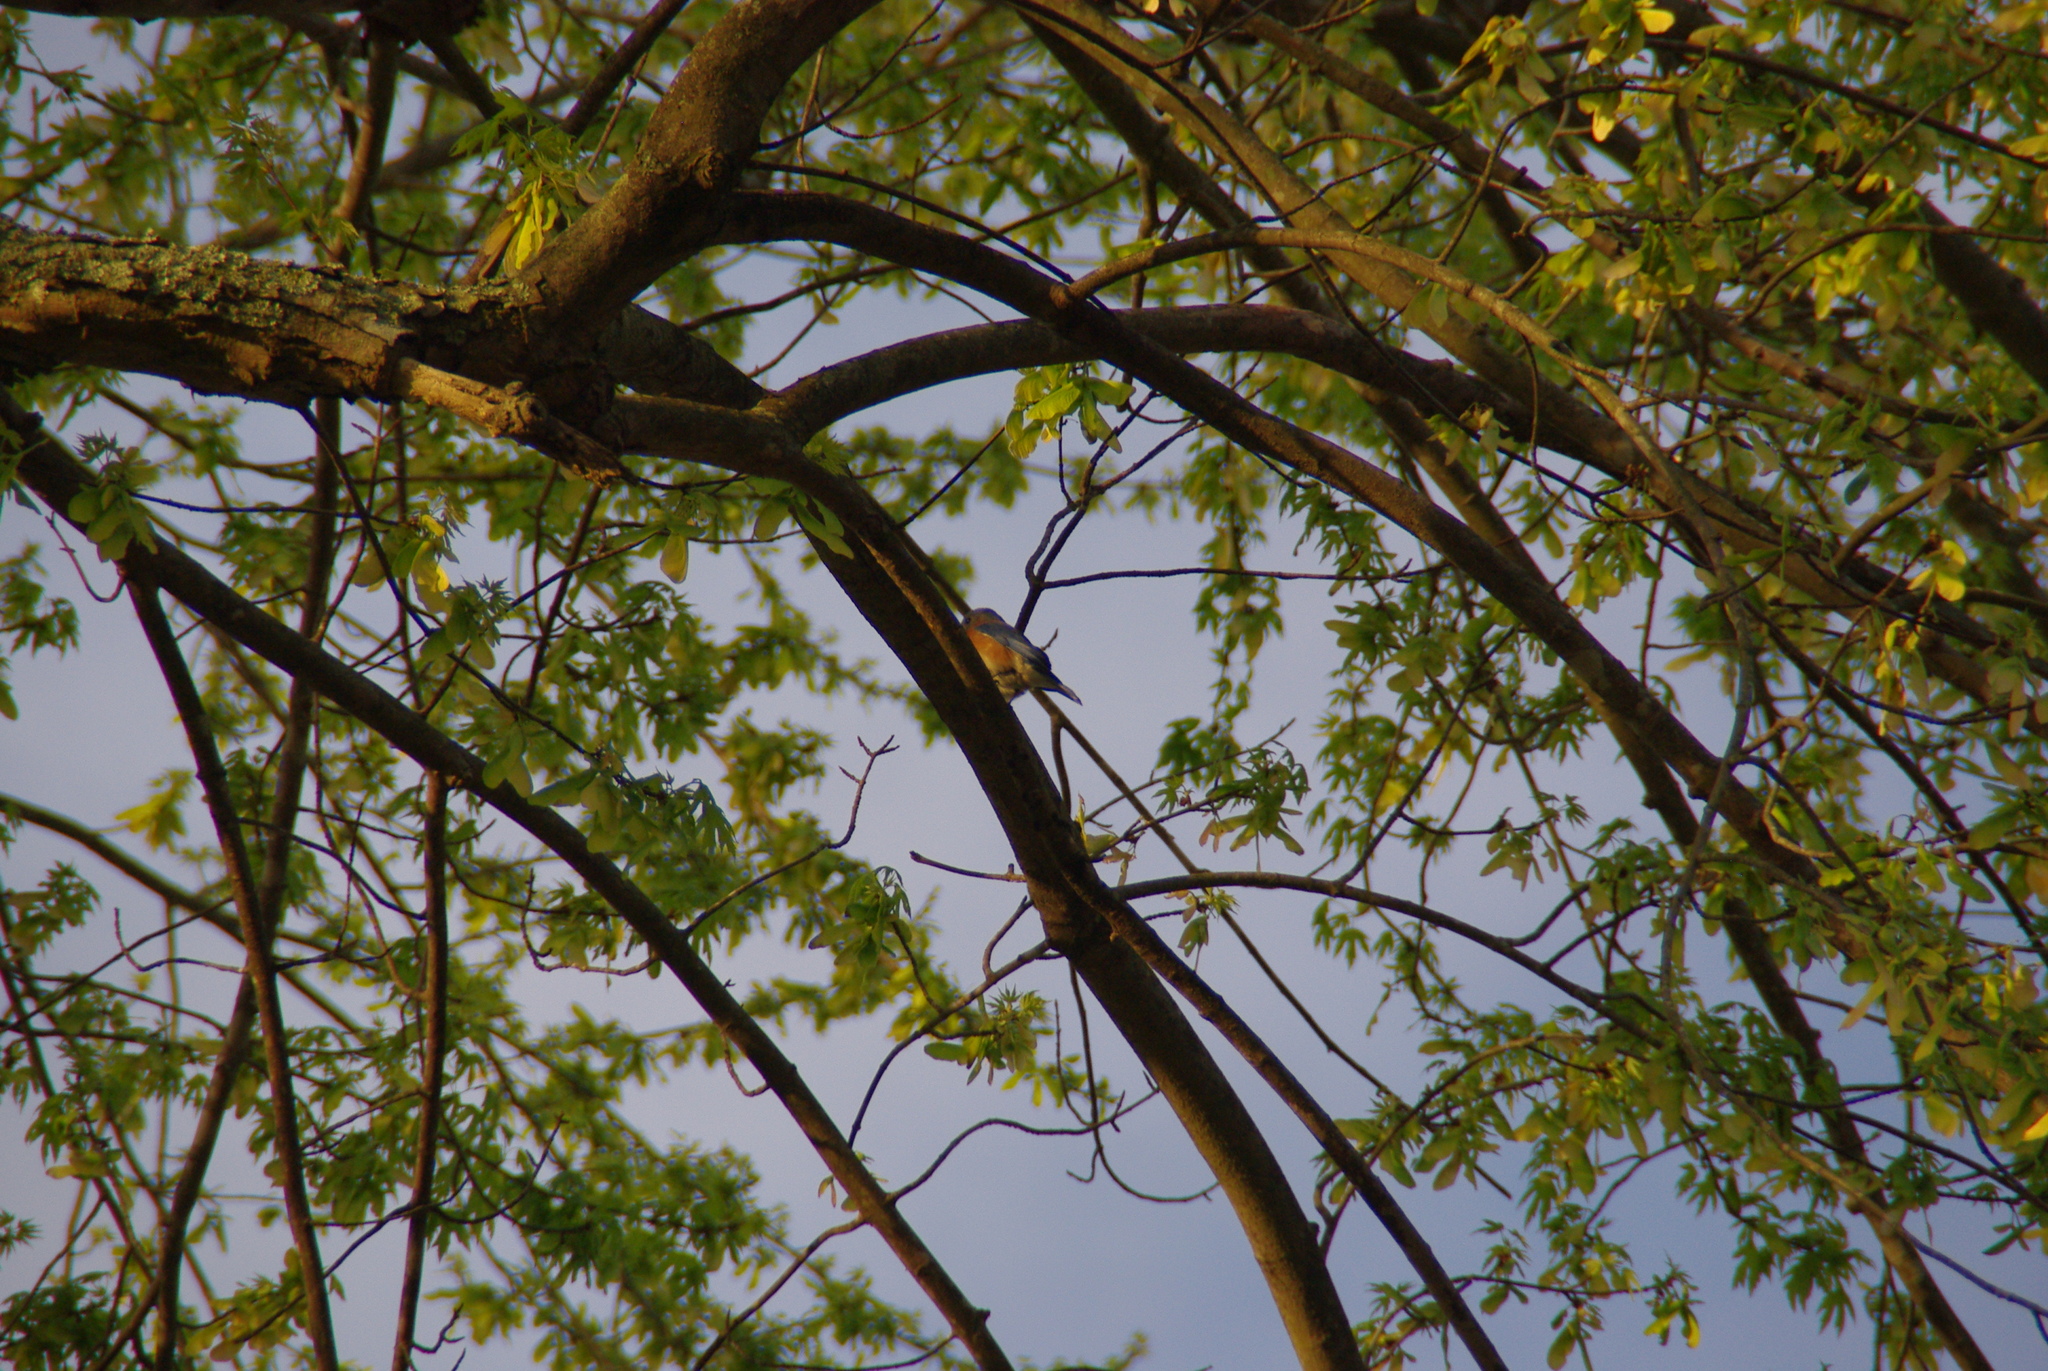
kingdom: Animalia
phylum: Chordata
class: Aves
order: Passeriformes
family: Turdidae
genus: Sialia
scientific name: Sialia sialis
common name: Eastern bluebird
